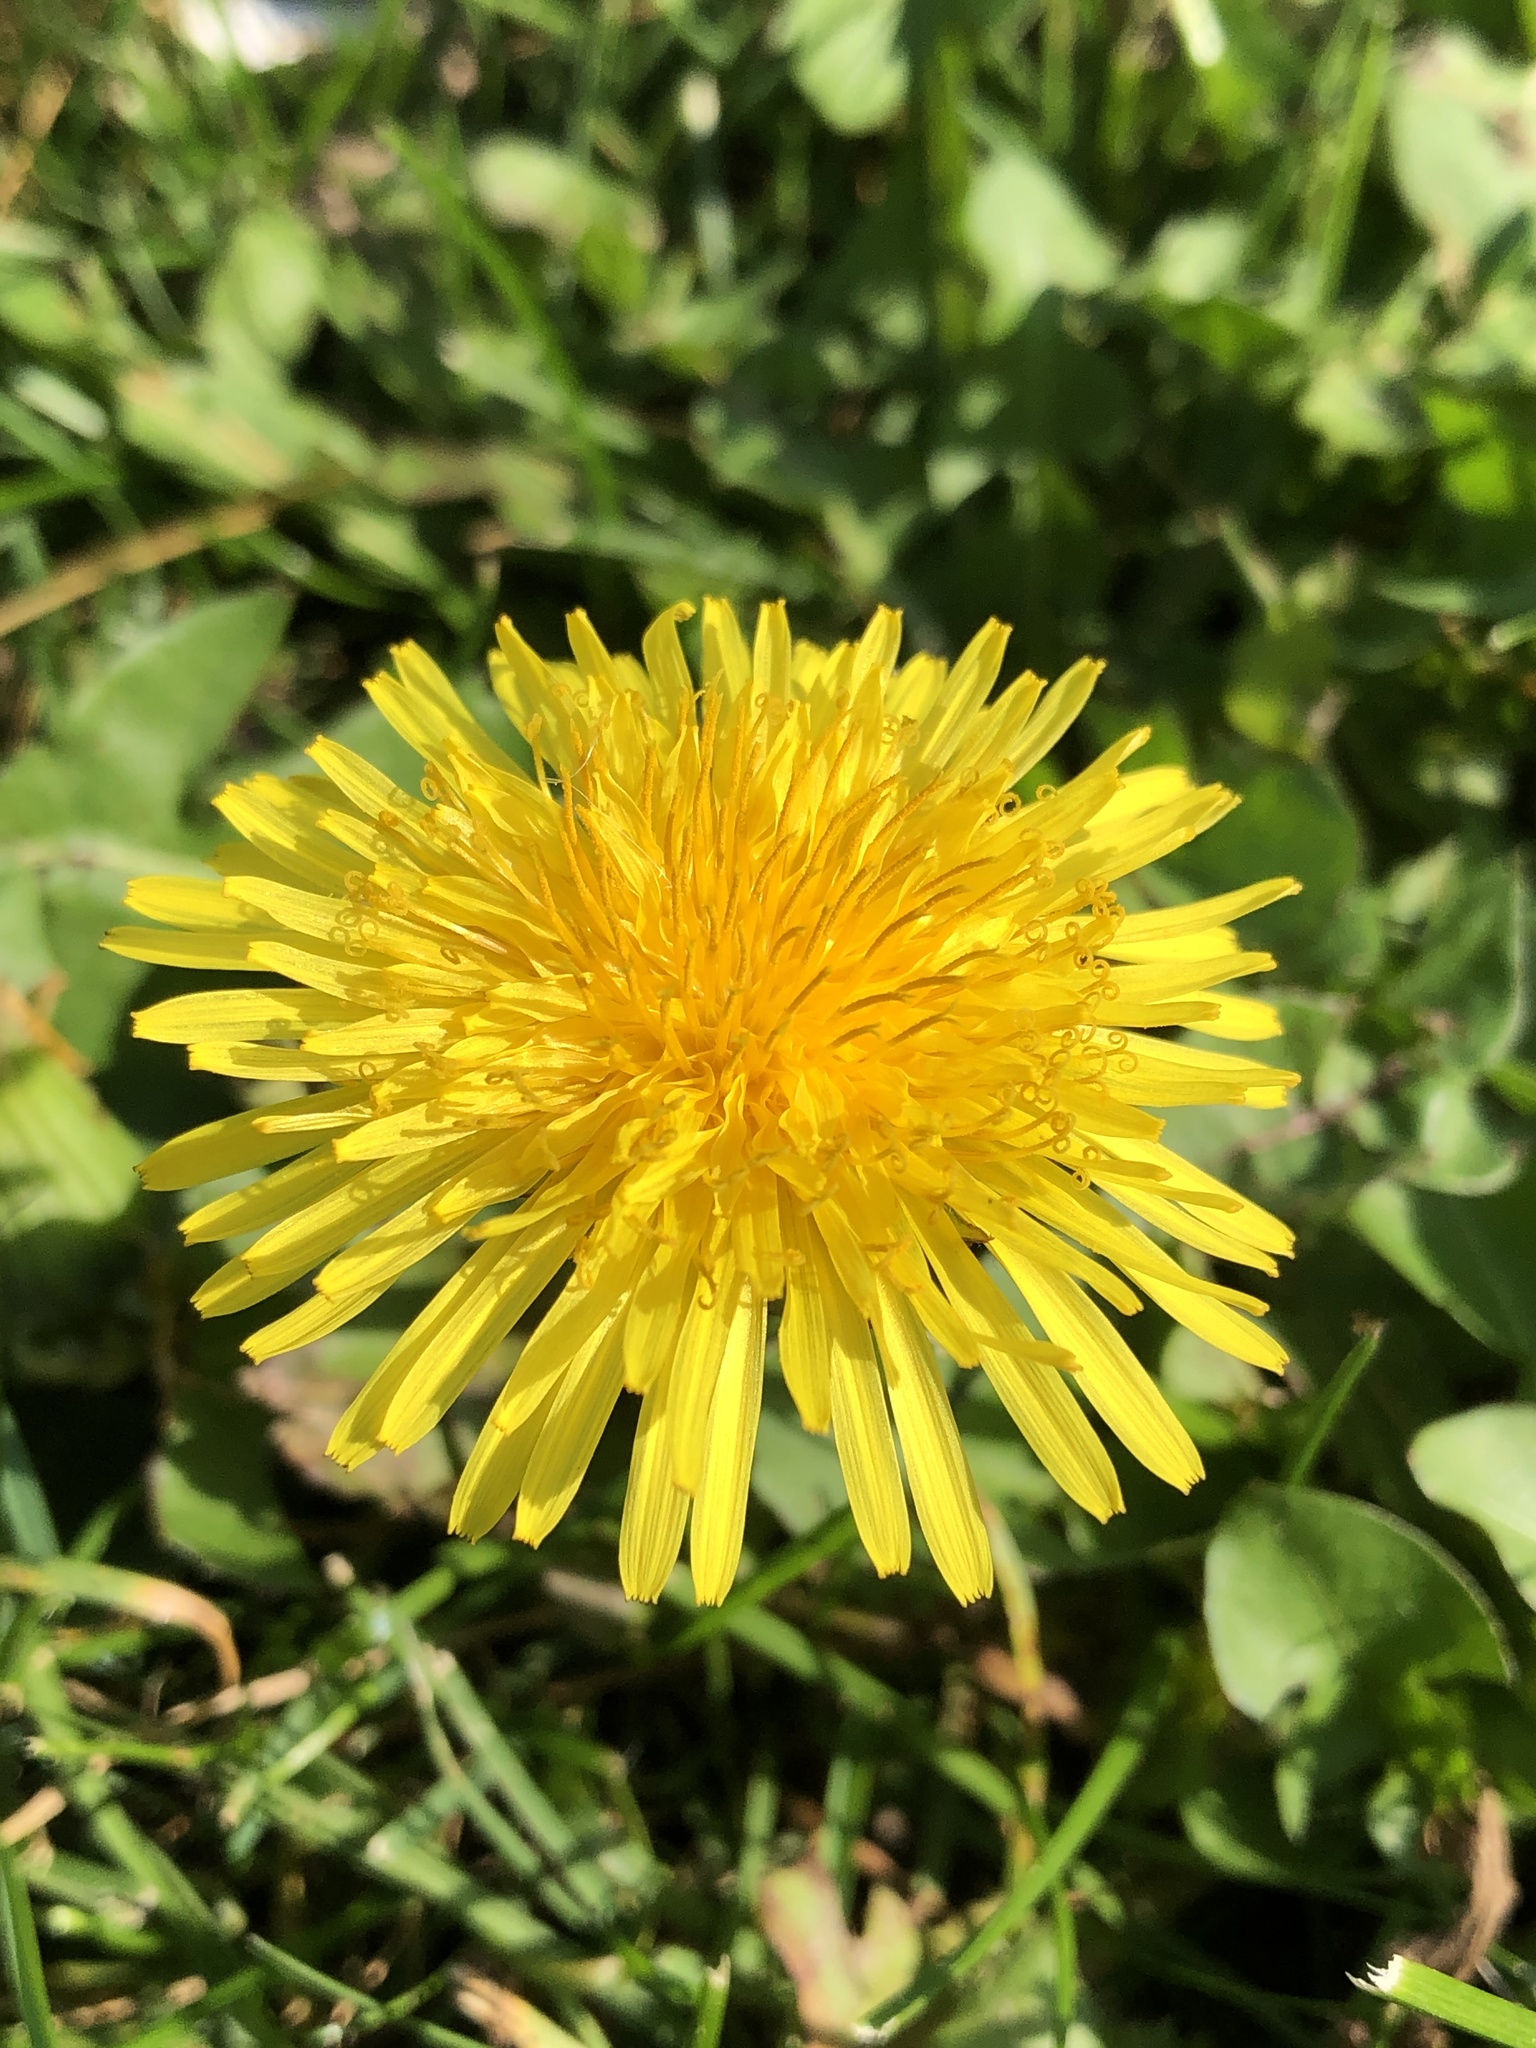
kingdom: Plantae
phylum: Tracheophyta
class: Magnoliopsida
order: Asterales
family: Asteraceae
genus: Taraxacum
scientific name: Taraxacum officinale
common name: Common dandelion
